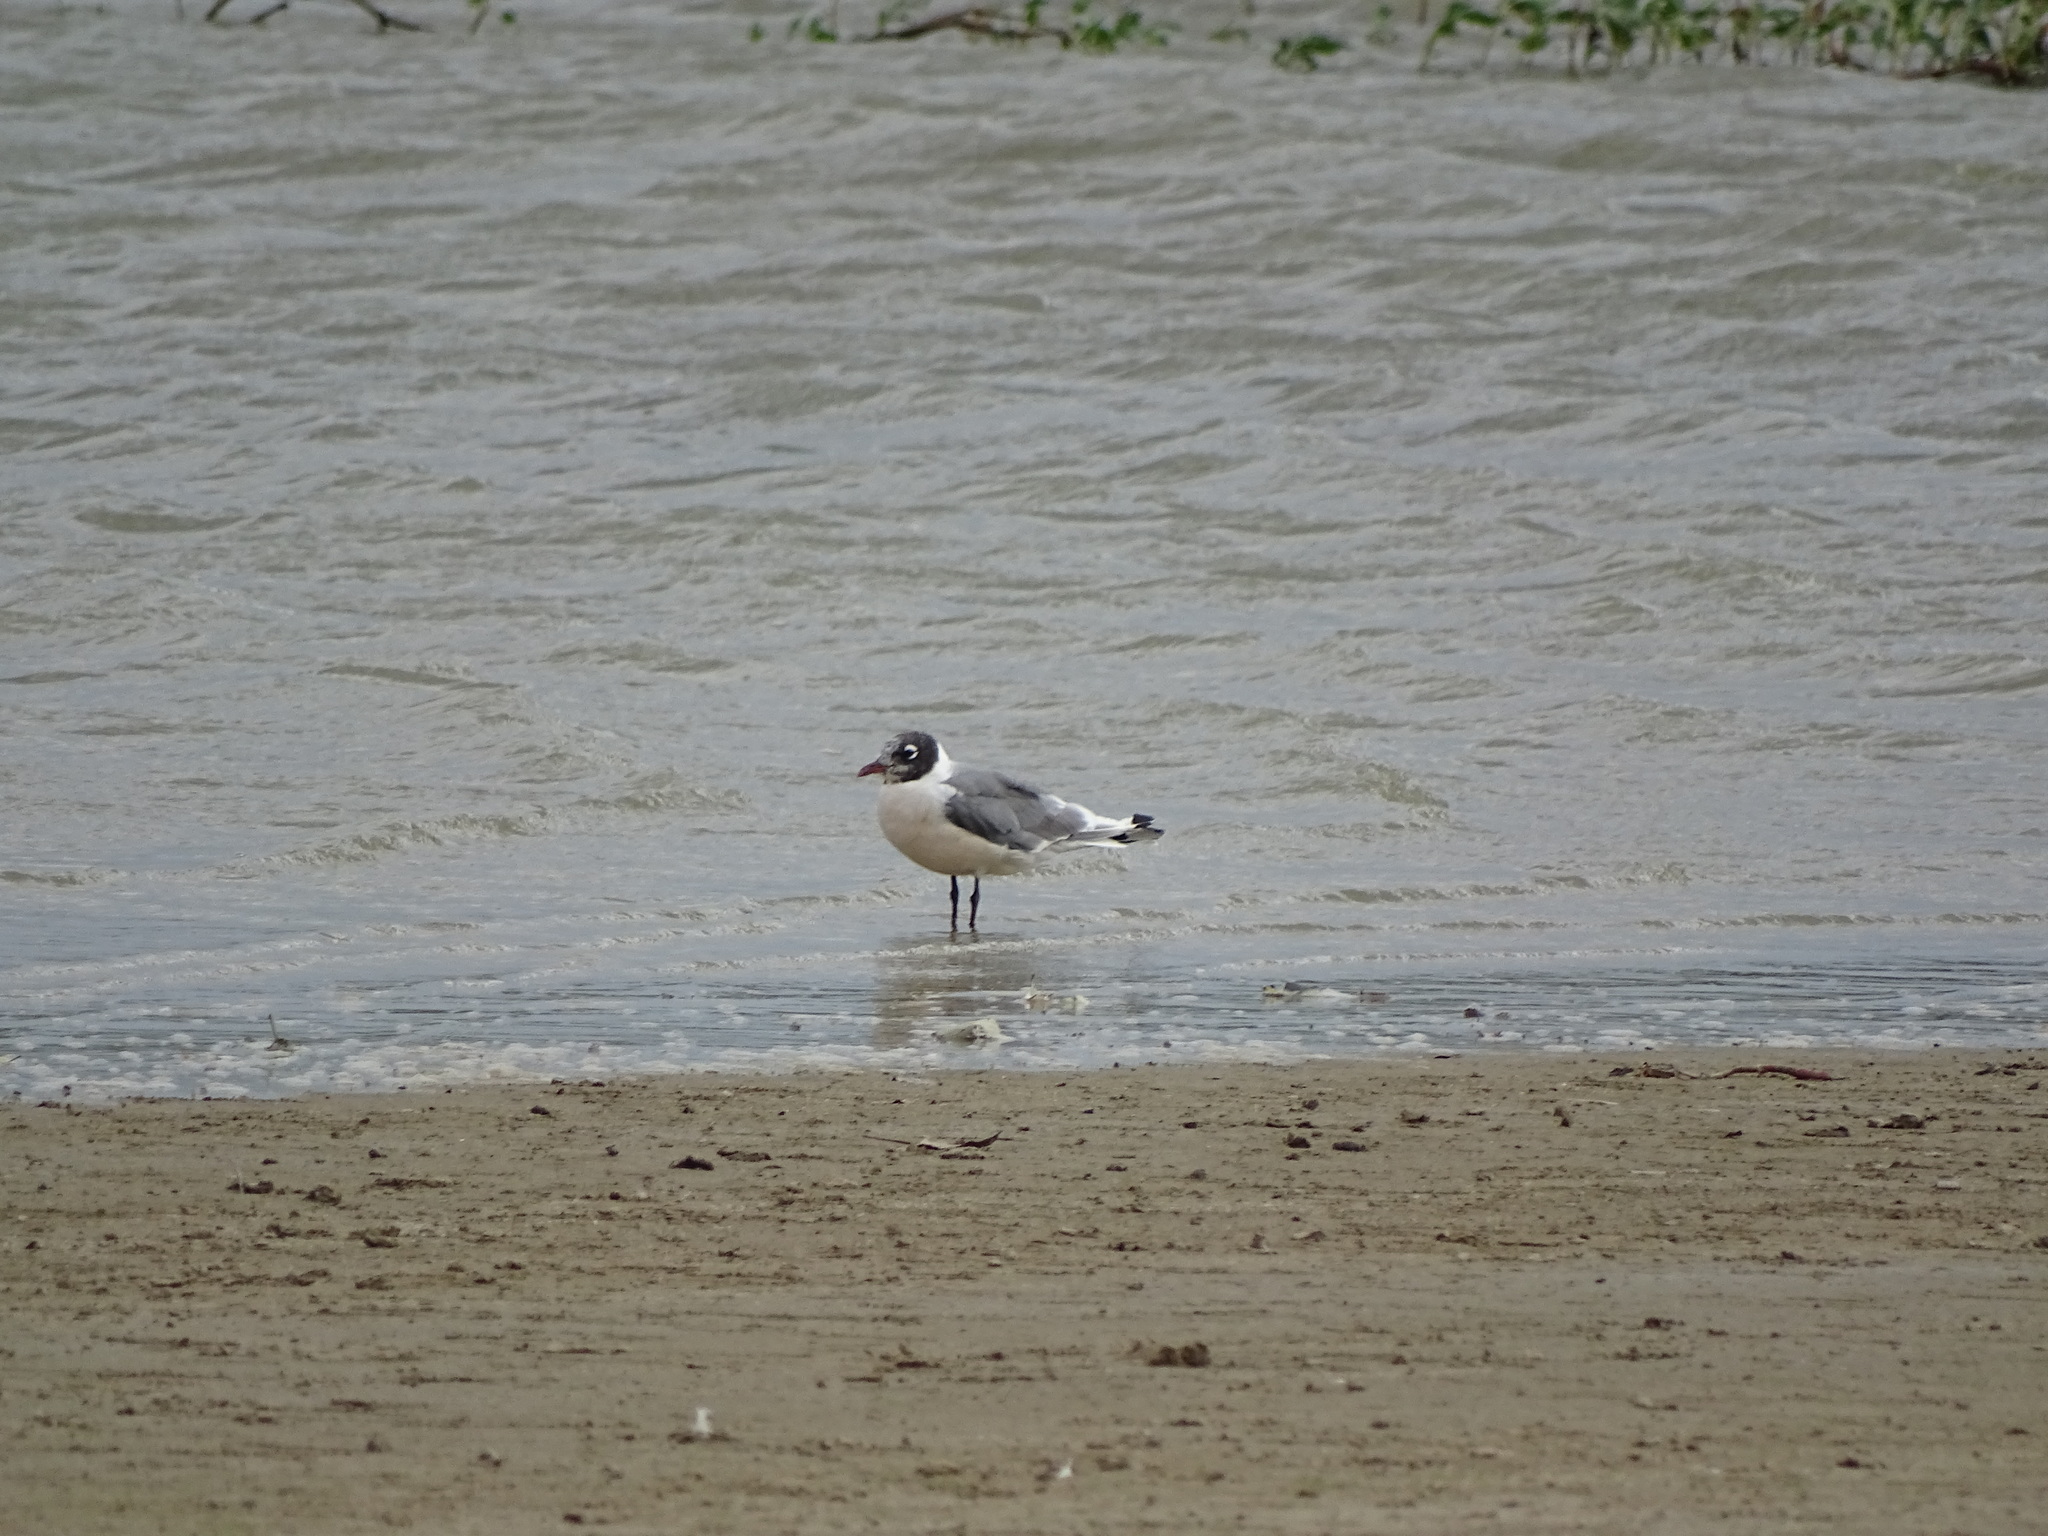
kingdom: Animalia
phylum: Chordata
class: Aves
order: Charadriiformes
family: Laridae
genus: Leucophaeus
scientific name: Leucophaeus pipixcan
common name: Franklin's gull
